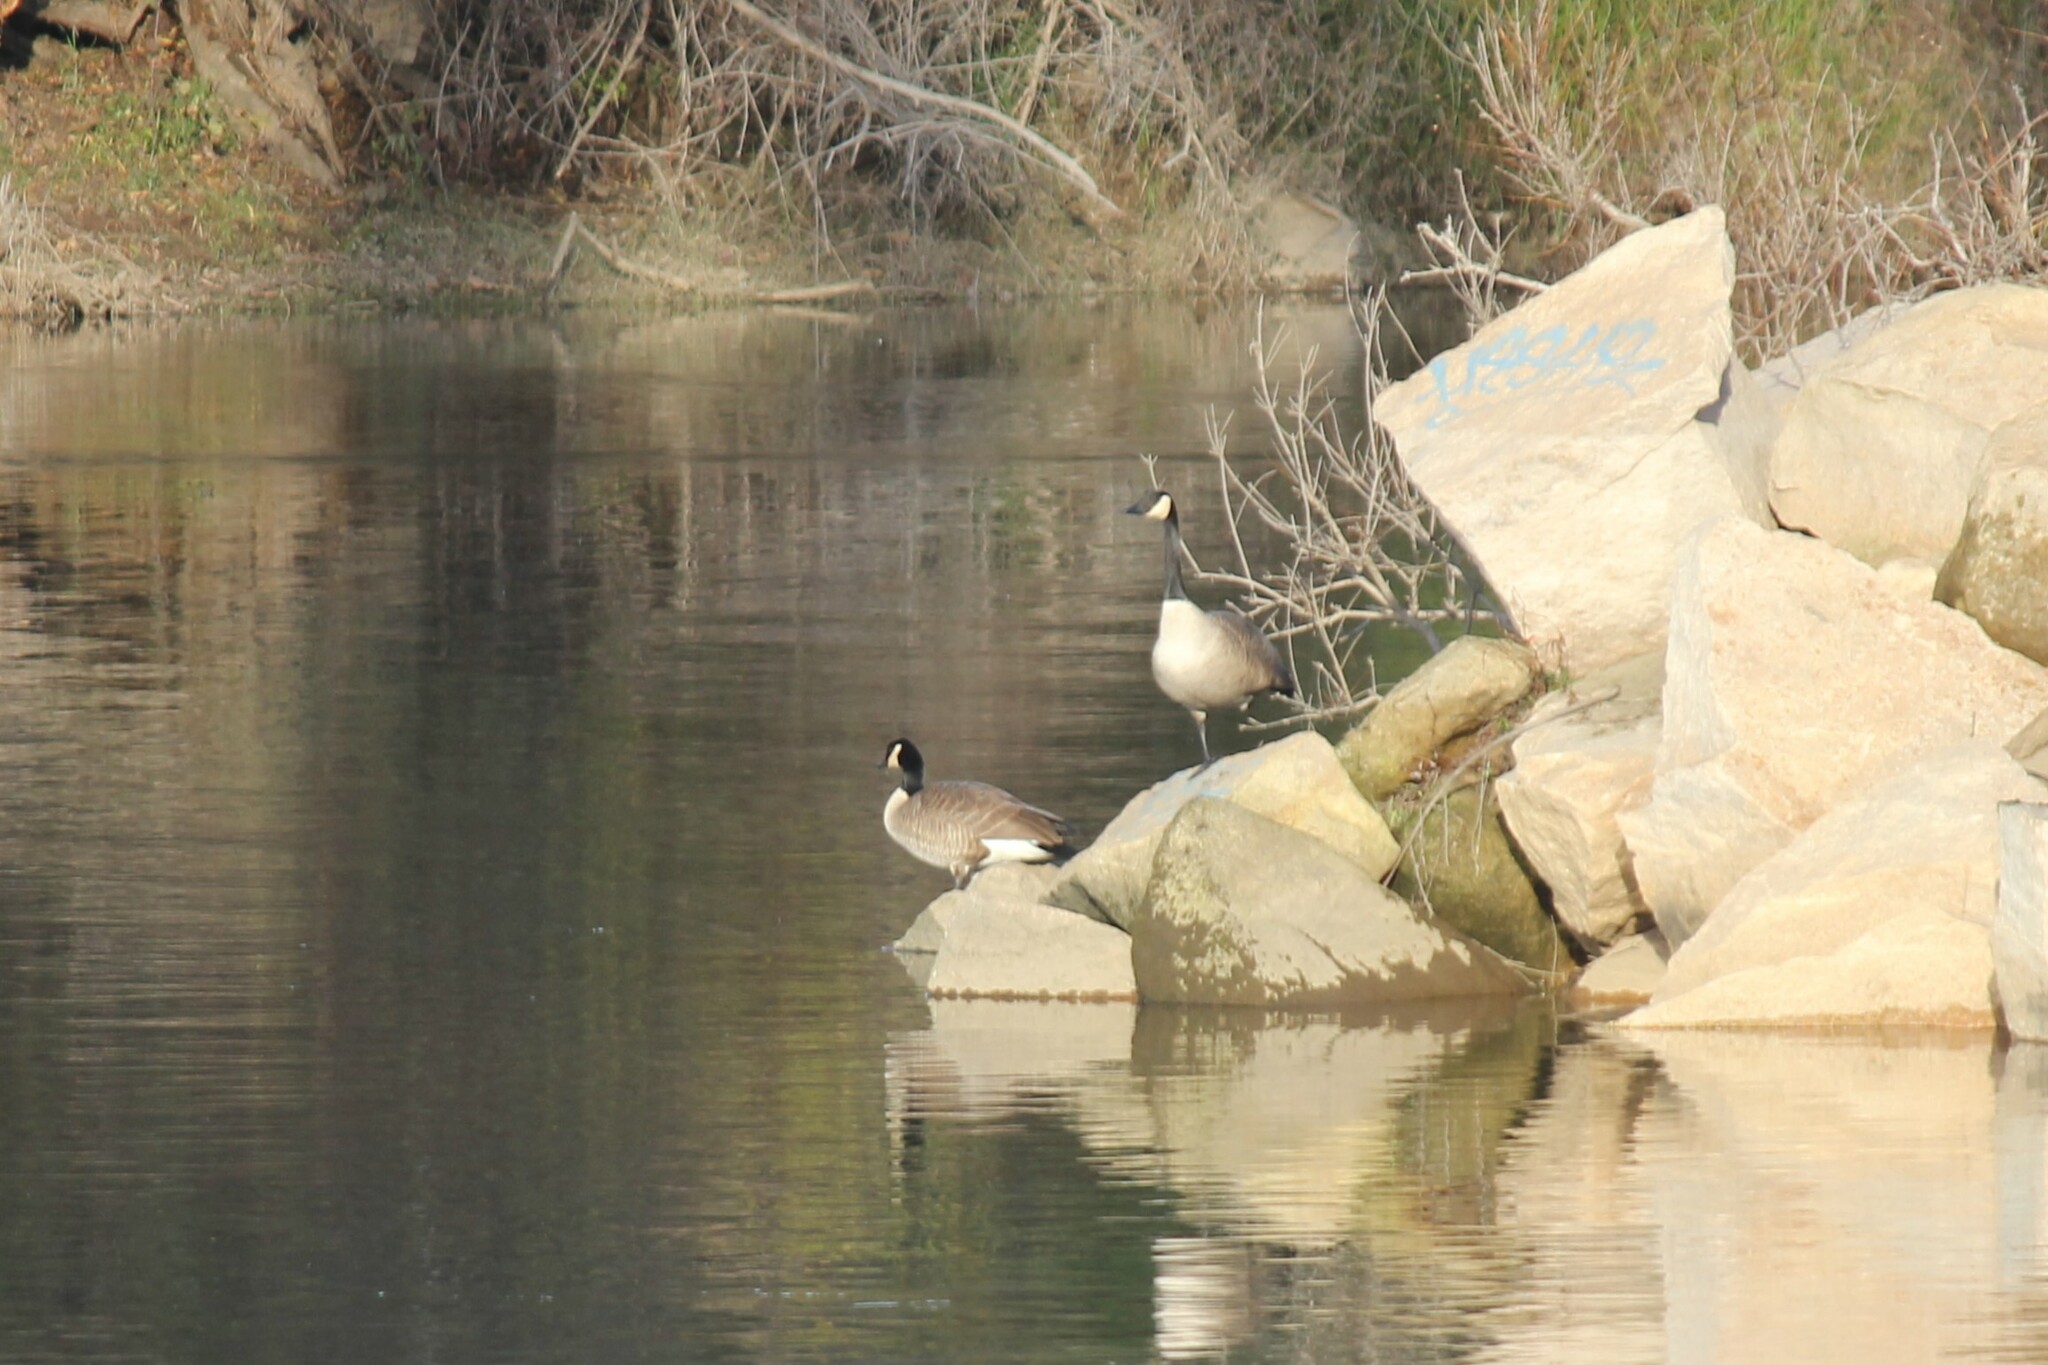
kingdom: Animalia
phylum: Chordata
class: Aves
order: Anseriformes
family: Anatidae
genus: Branta
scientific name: Branta canadensis
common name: Canada goose
